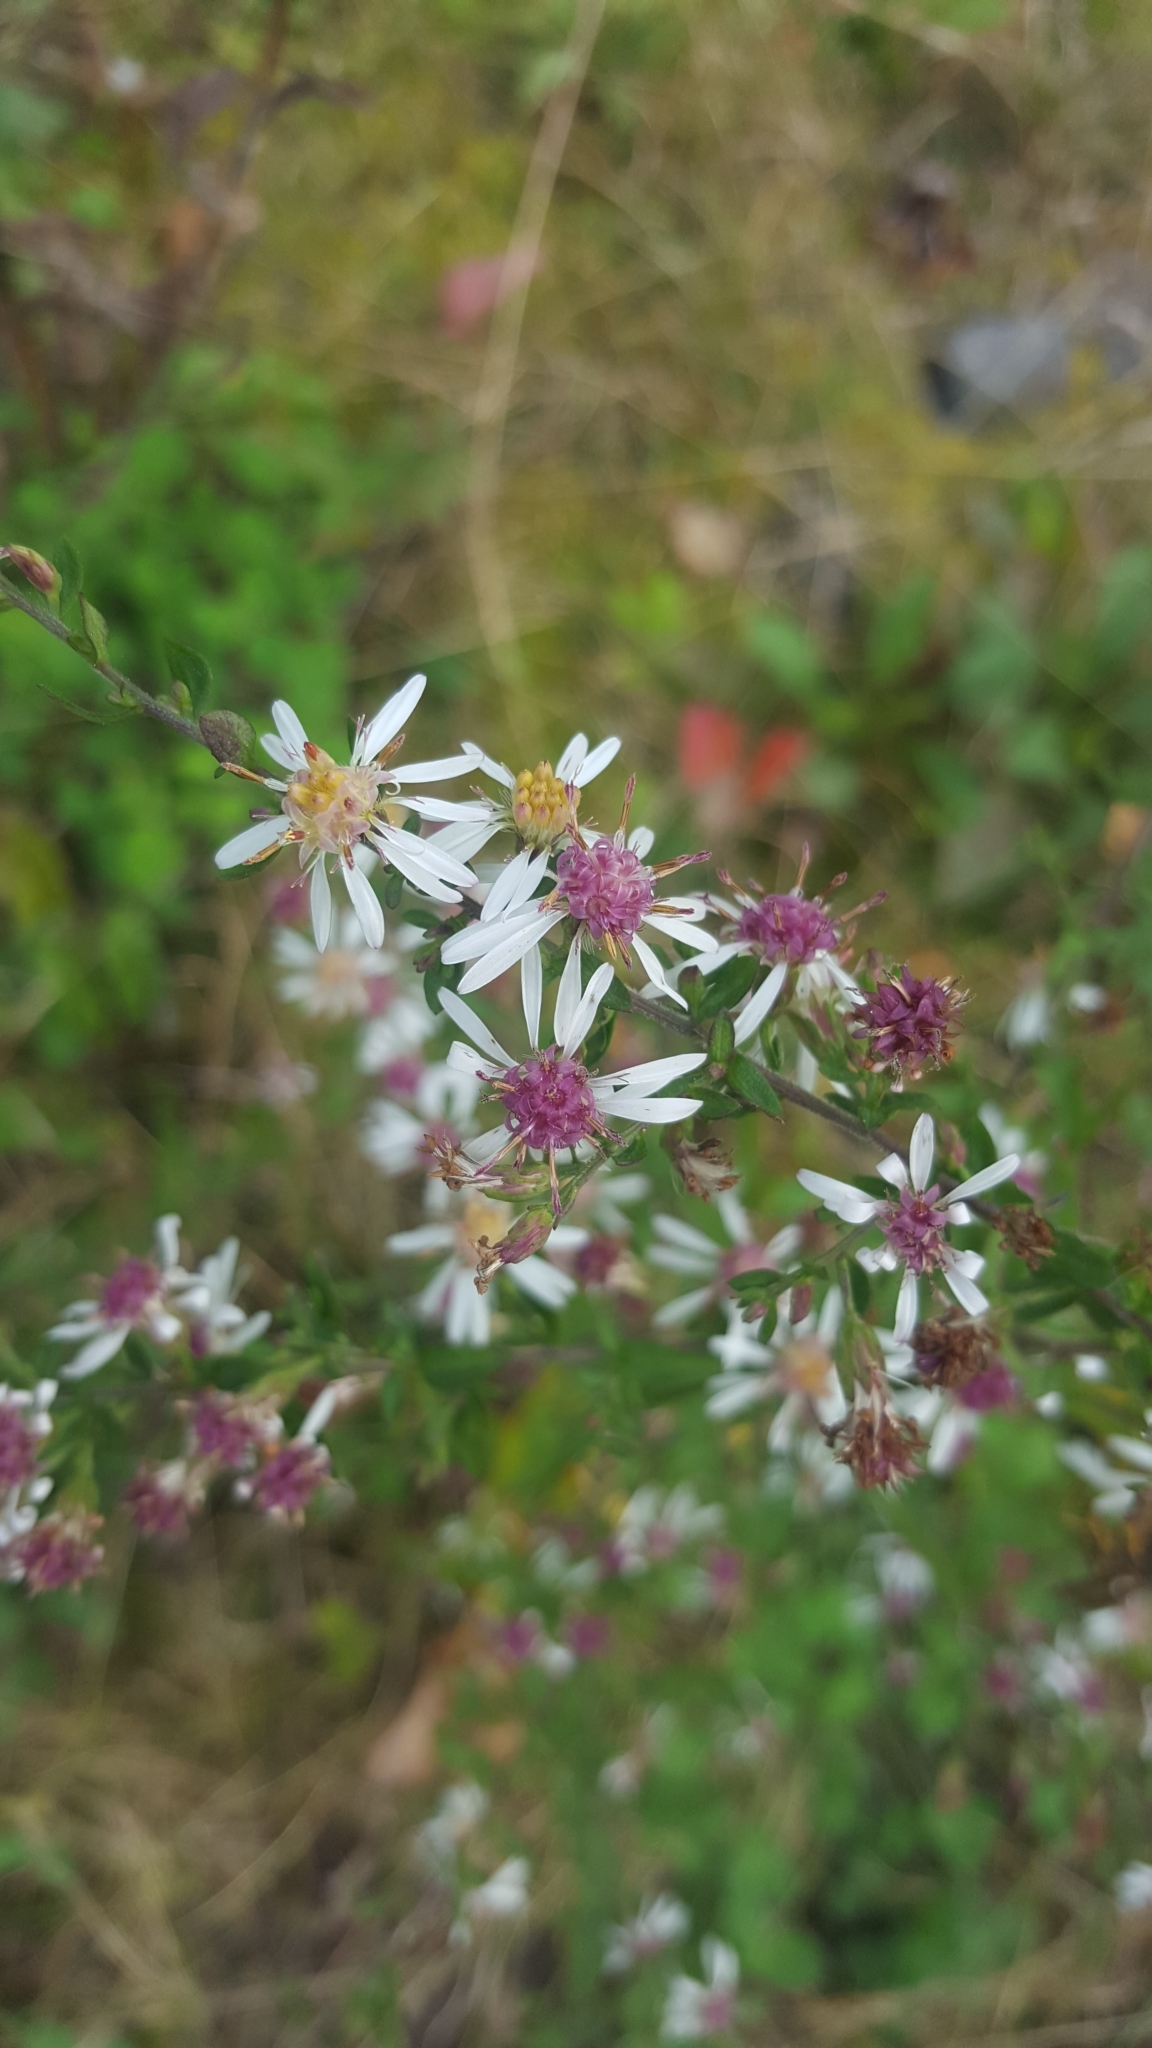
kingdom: Plantae
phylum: Tracheophyta
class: Magnoliopsida
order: Asterales
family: Asteraceae
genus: Symphyotrichum
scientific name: Symphyotrichum lateriflorum
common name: Calico aster
